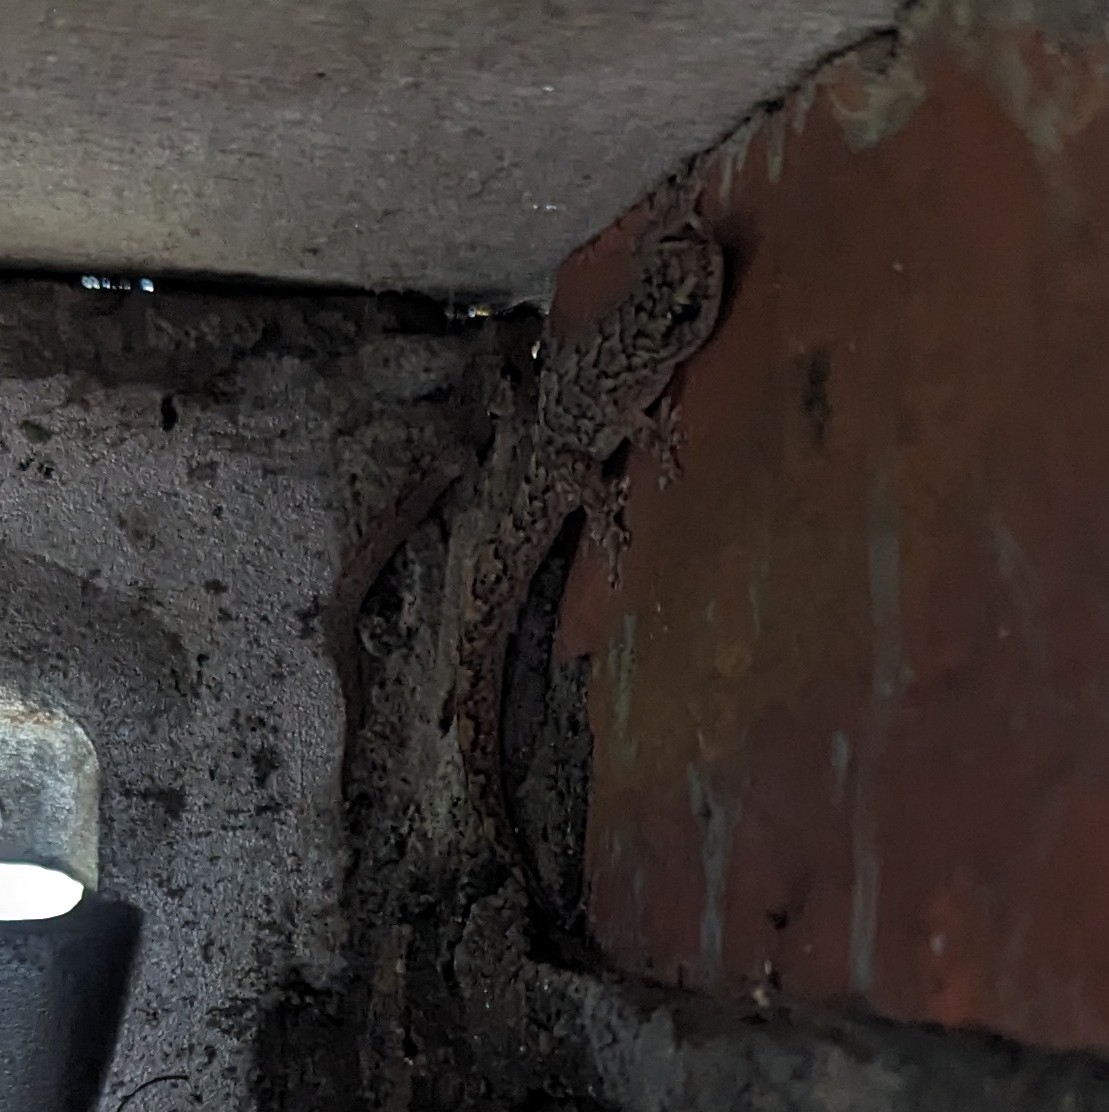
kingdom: Animalia
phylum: Chordata
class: Squamata
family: Gekkonidae
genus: Christinus
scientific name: Christinus marmoratus
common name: Marbled gecko
